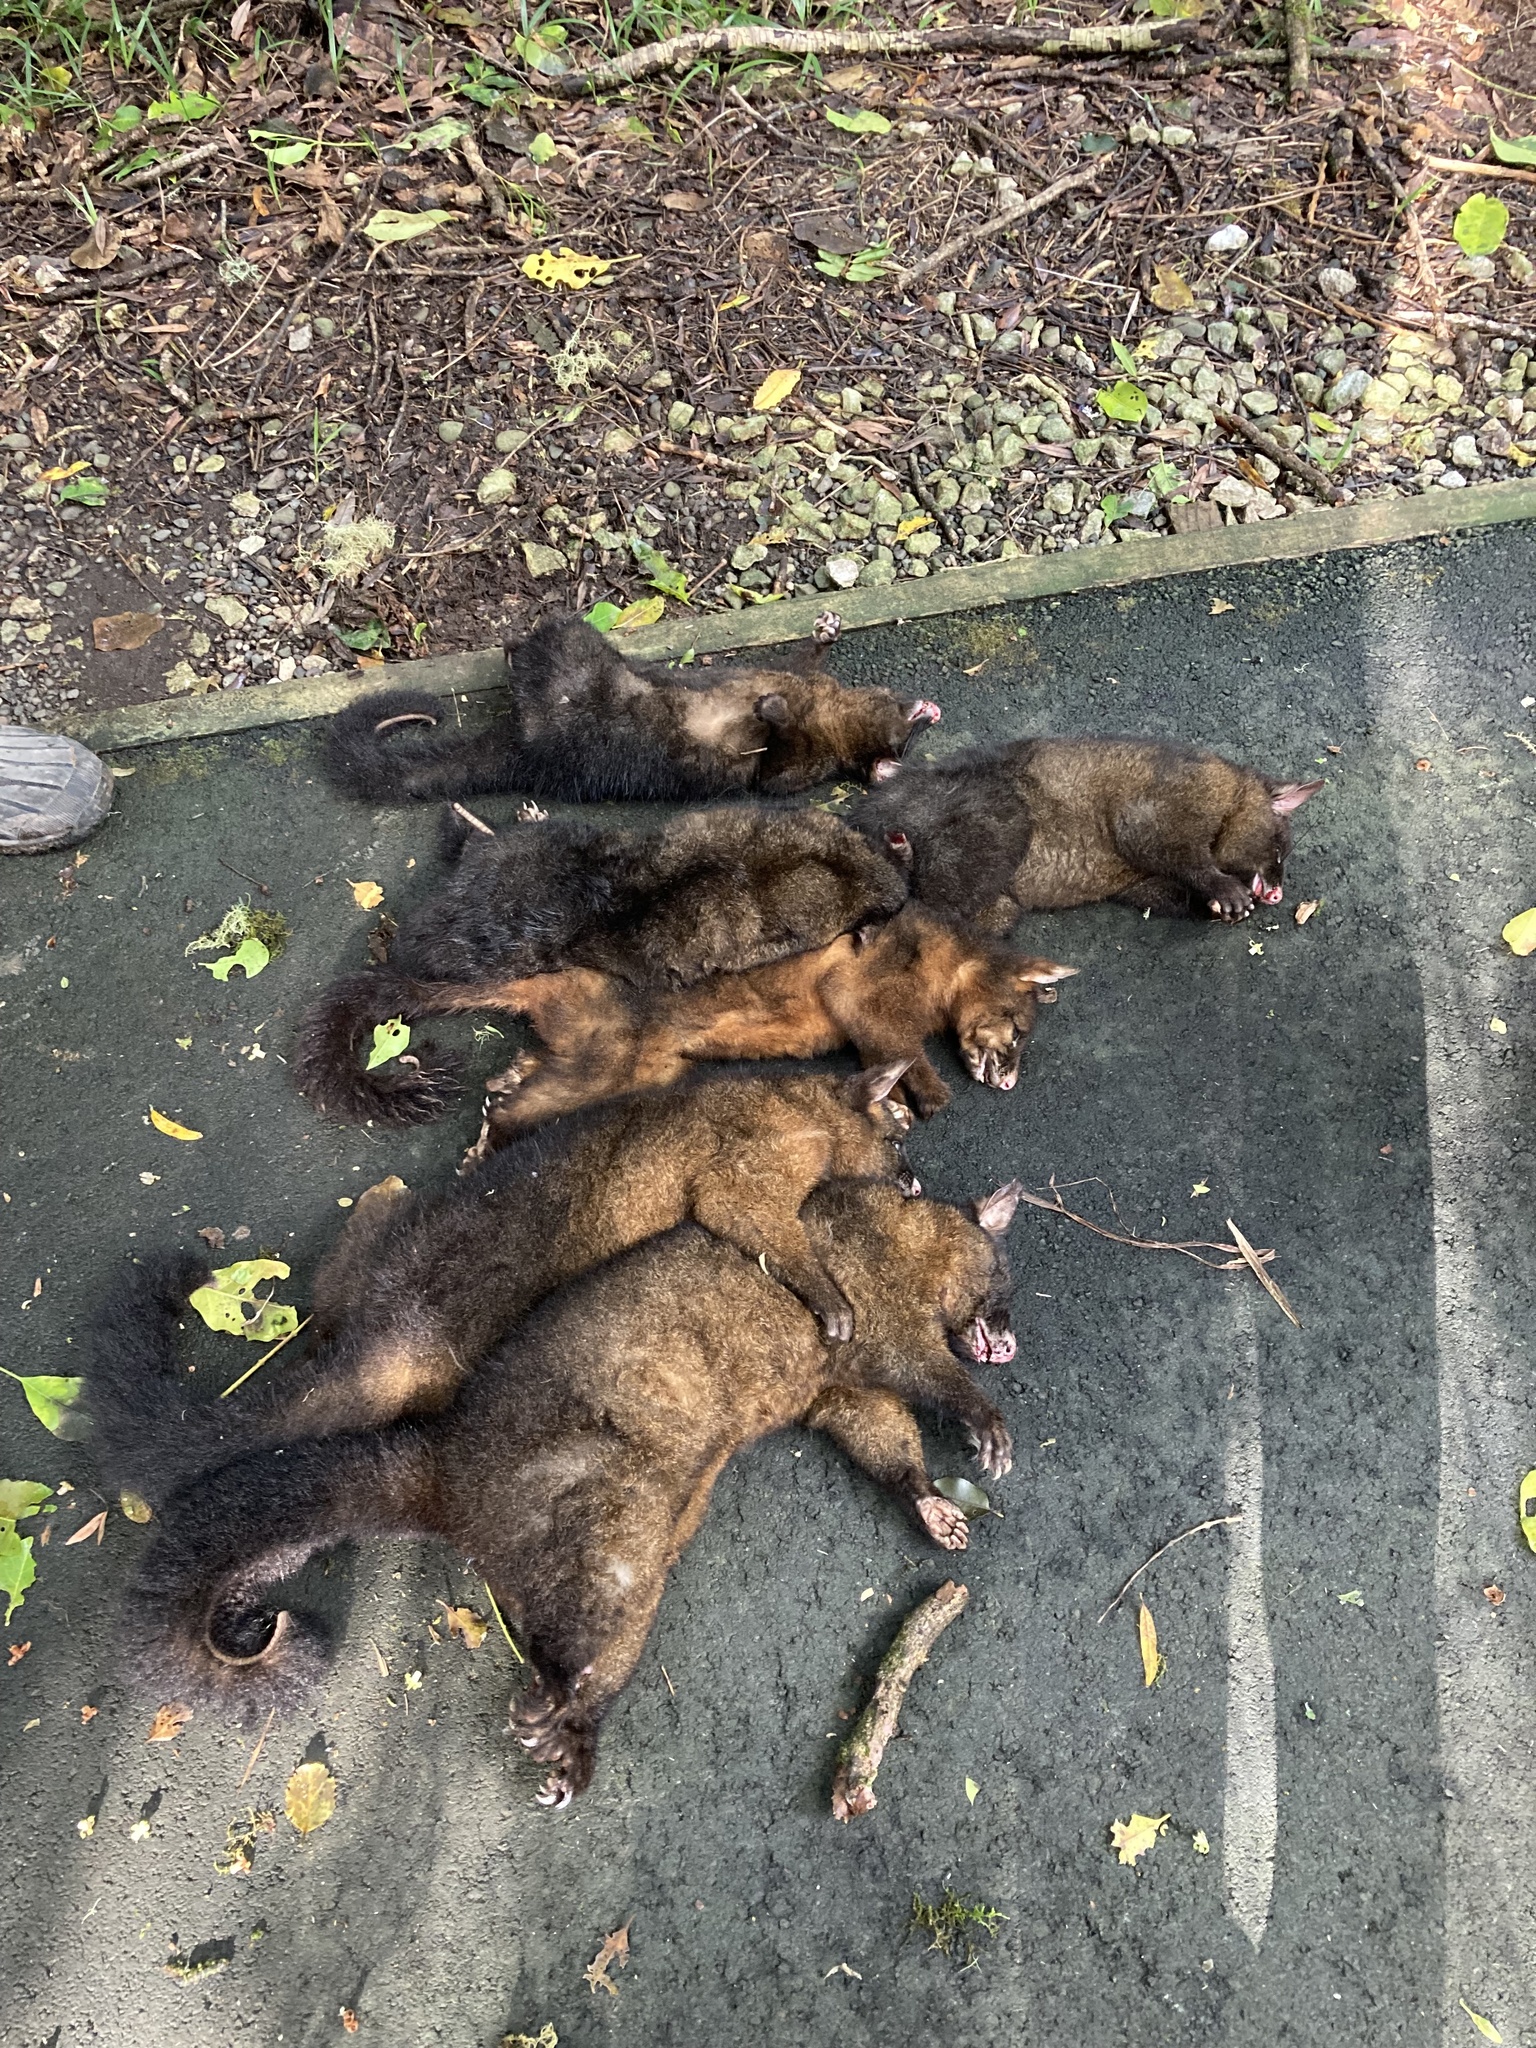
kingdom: Animalia
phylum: Chordata
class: Mammalia
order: Diprotodontia
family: Phalangeridae
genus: Trichosurus
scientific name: Trichosurus vulpecula
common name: Common brushtail
